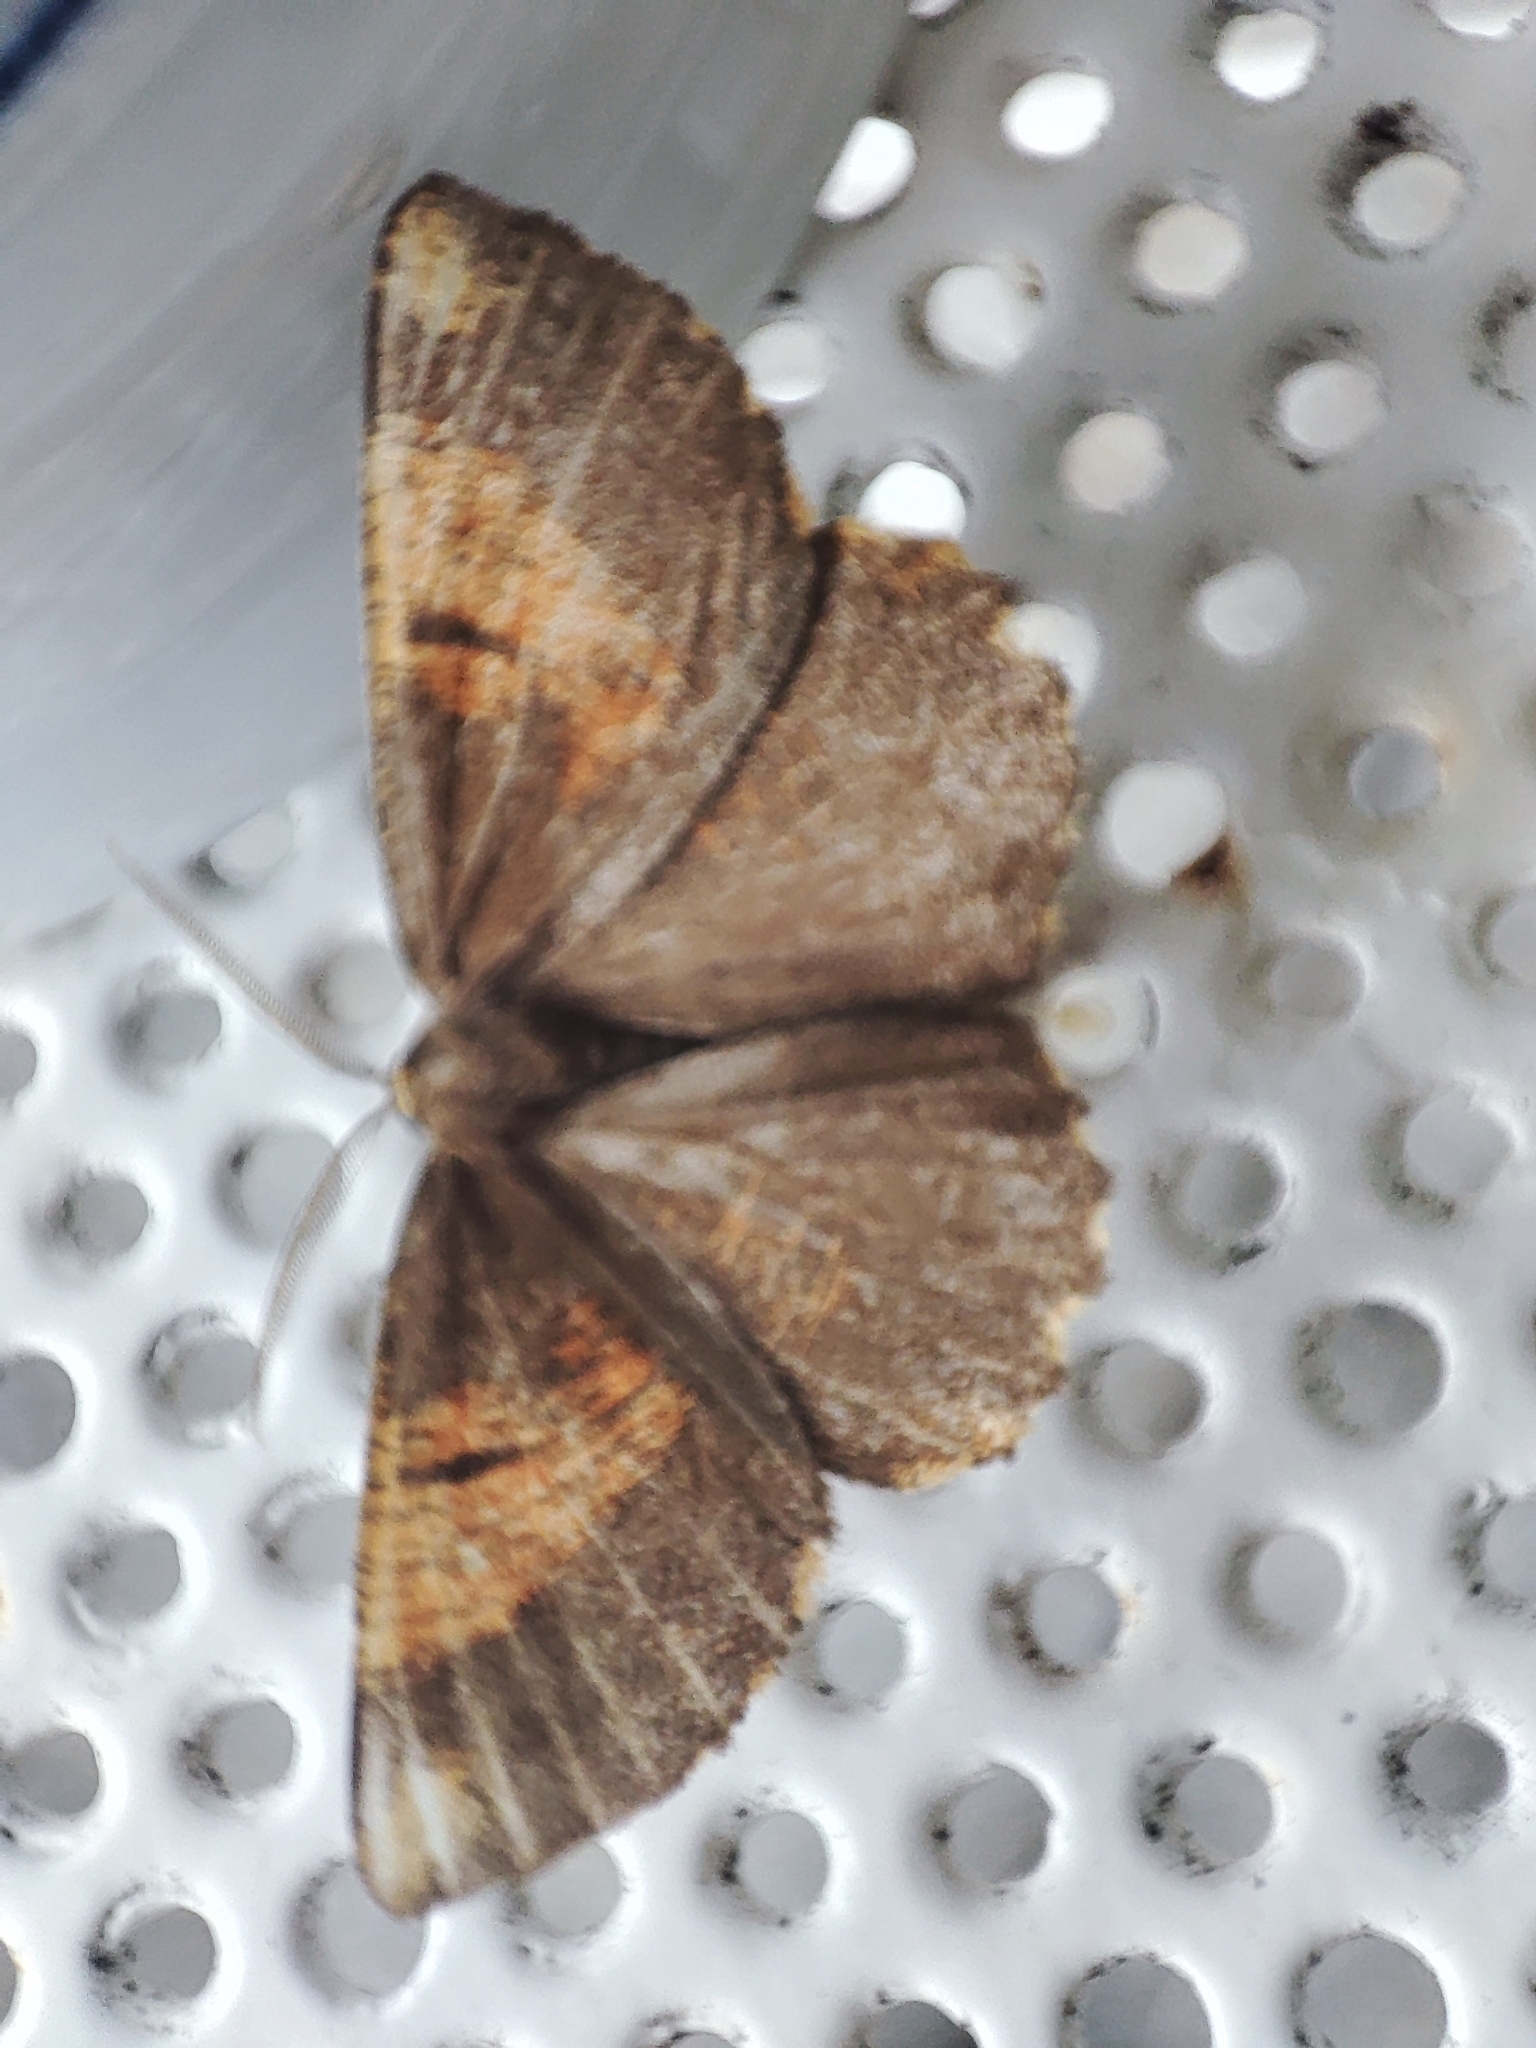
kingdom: Animalia
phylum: Arthropoda
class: Insecta
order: Lepidoptera
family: Geometridae
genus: Angerona
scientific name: Angerona prunaria
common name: Orange moth
